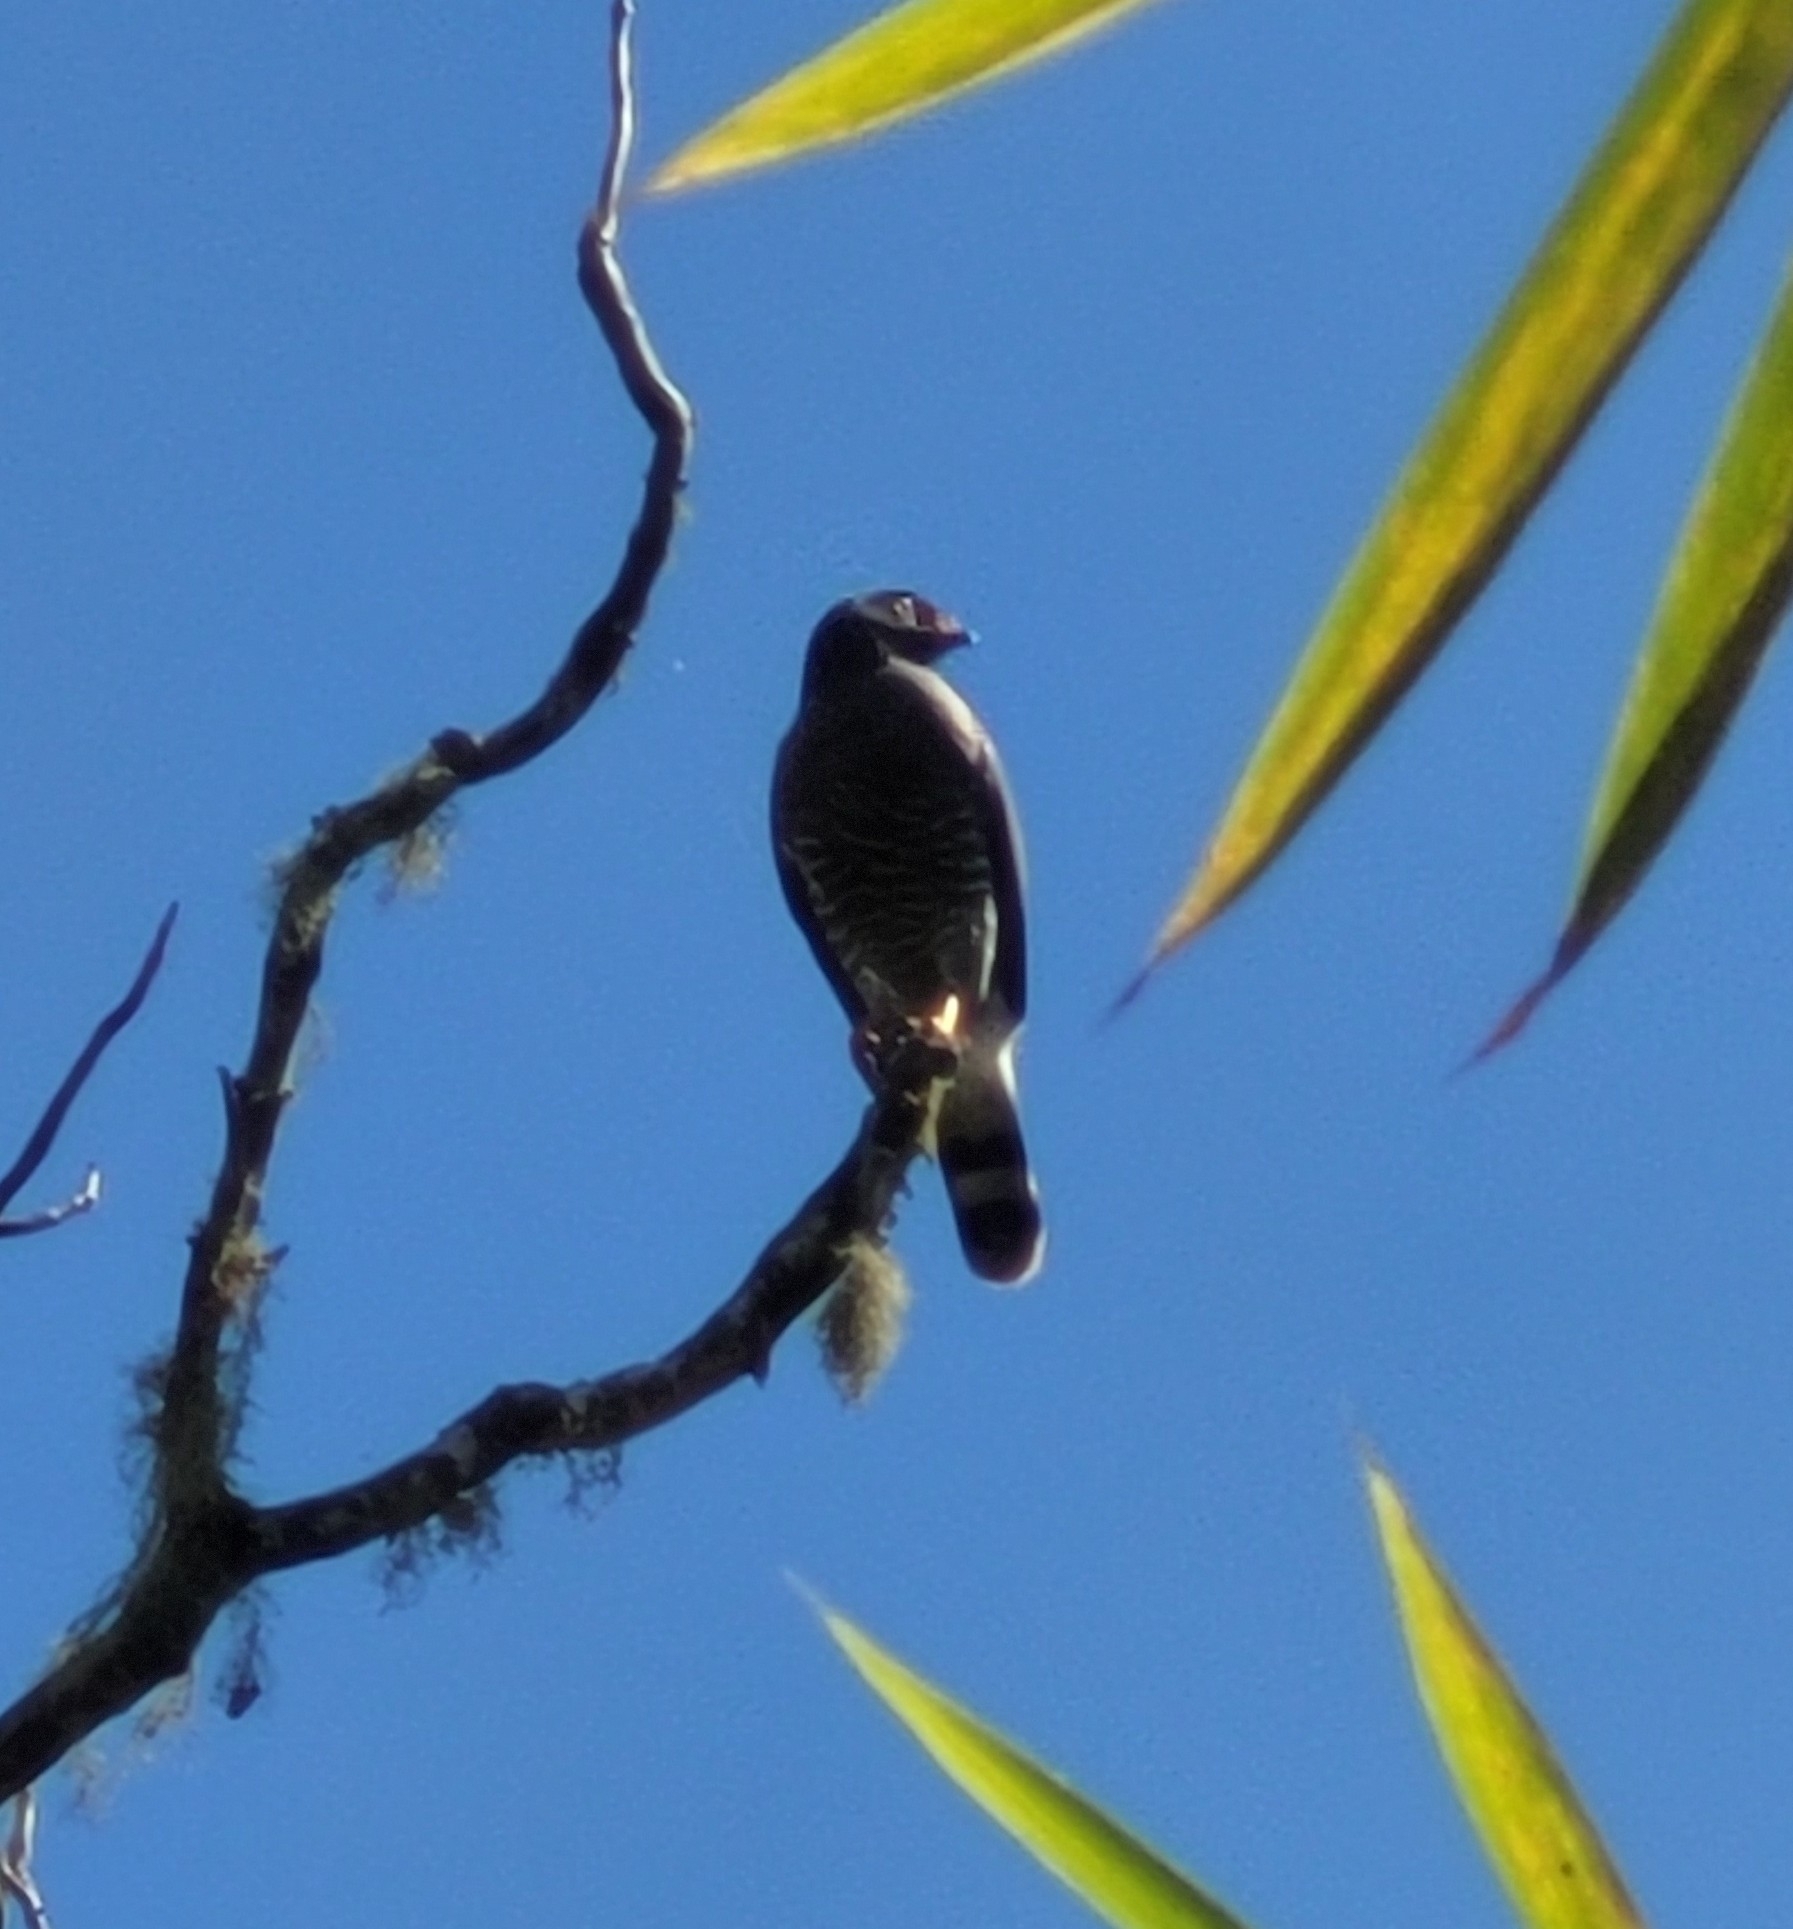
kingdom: Animalia
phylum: Chordata
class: Aves
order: Accipitriformes
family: Accipitridae
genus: Rupornis
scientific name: Rupornis magnirostris
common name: Roadside hawk
